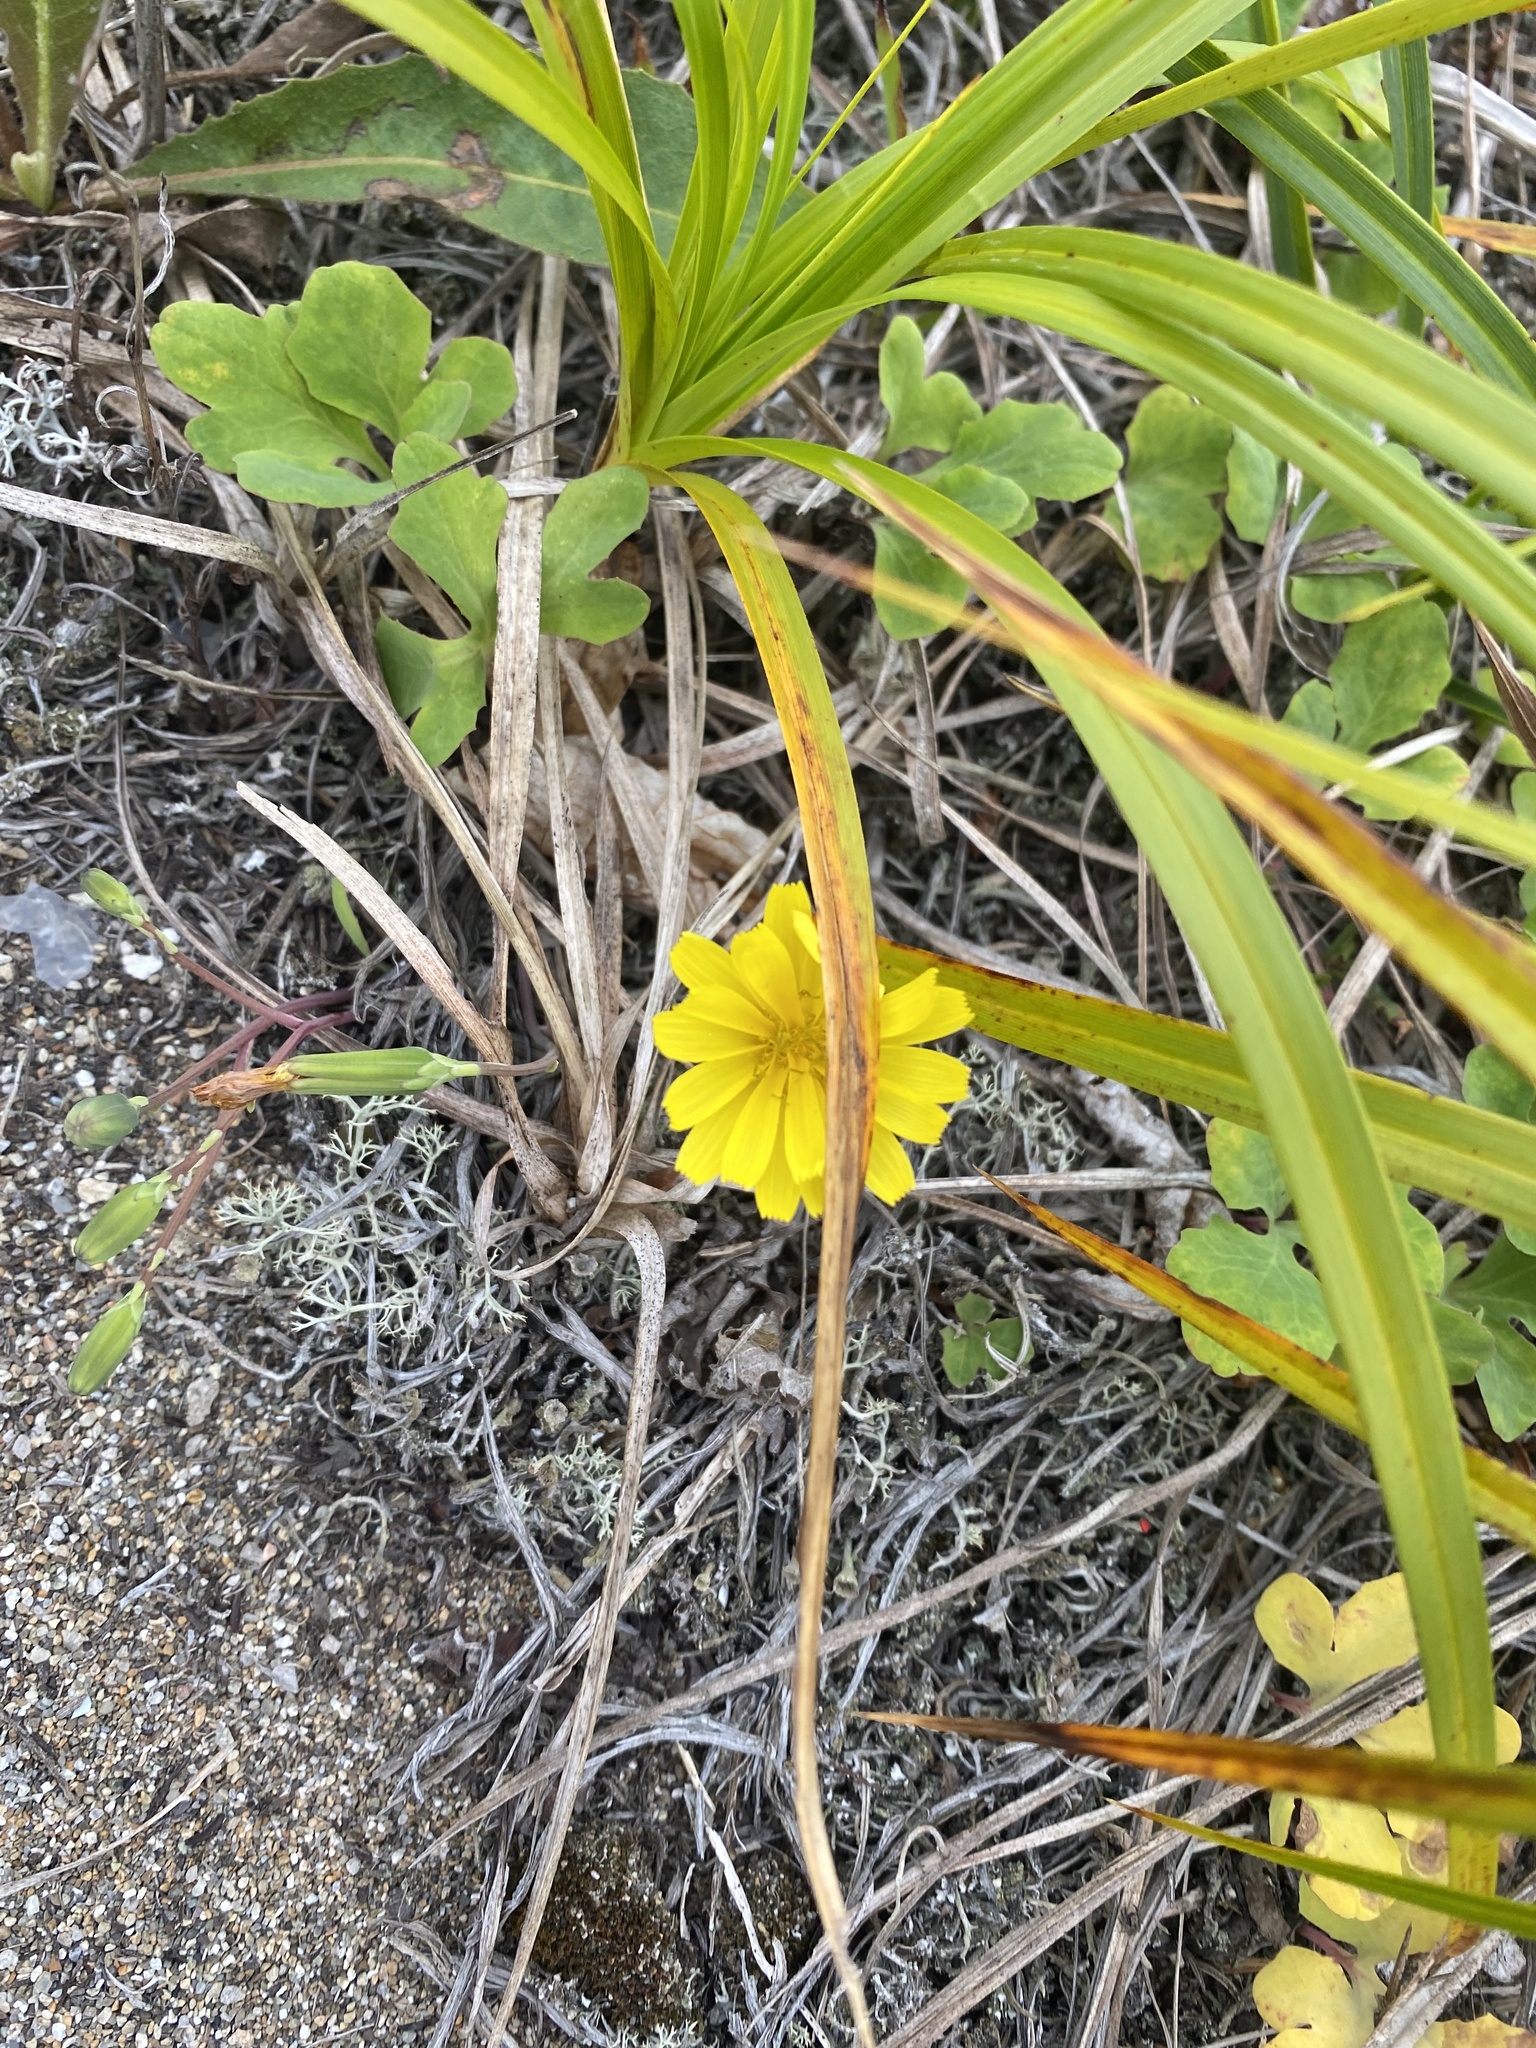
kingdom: Plantae
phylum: Tracheophyta
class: Magnoliopsida
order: Asterales
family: Asteraceae
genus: Ixeris
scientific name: Ixeris repens
